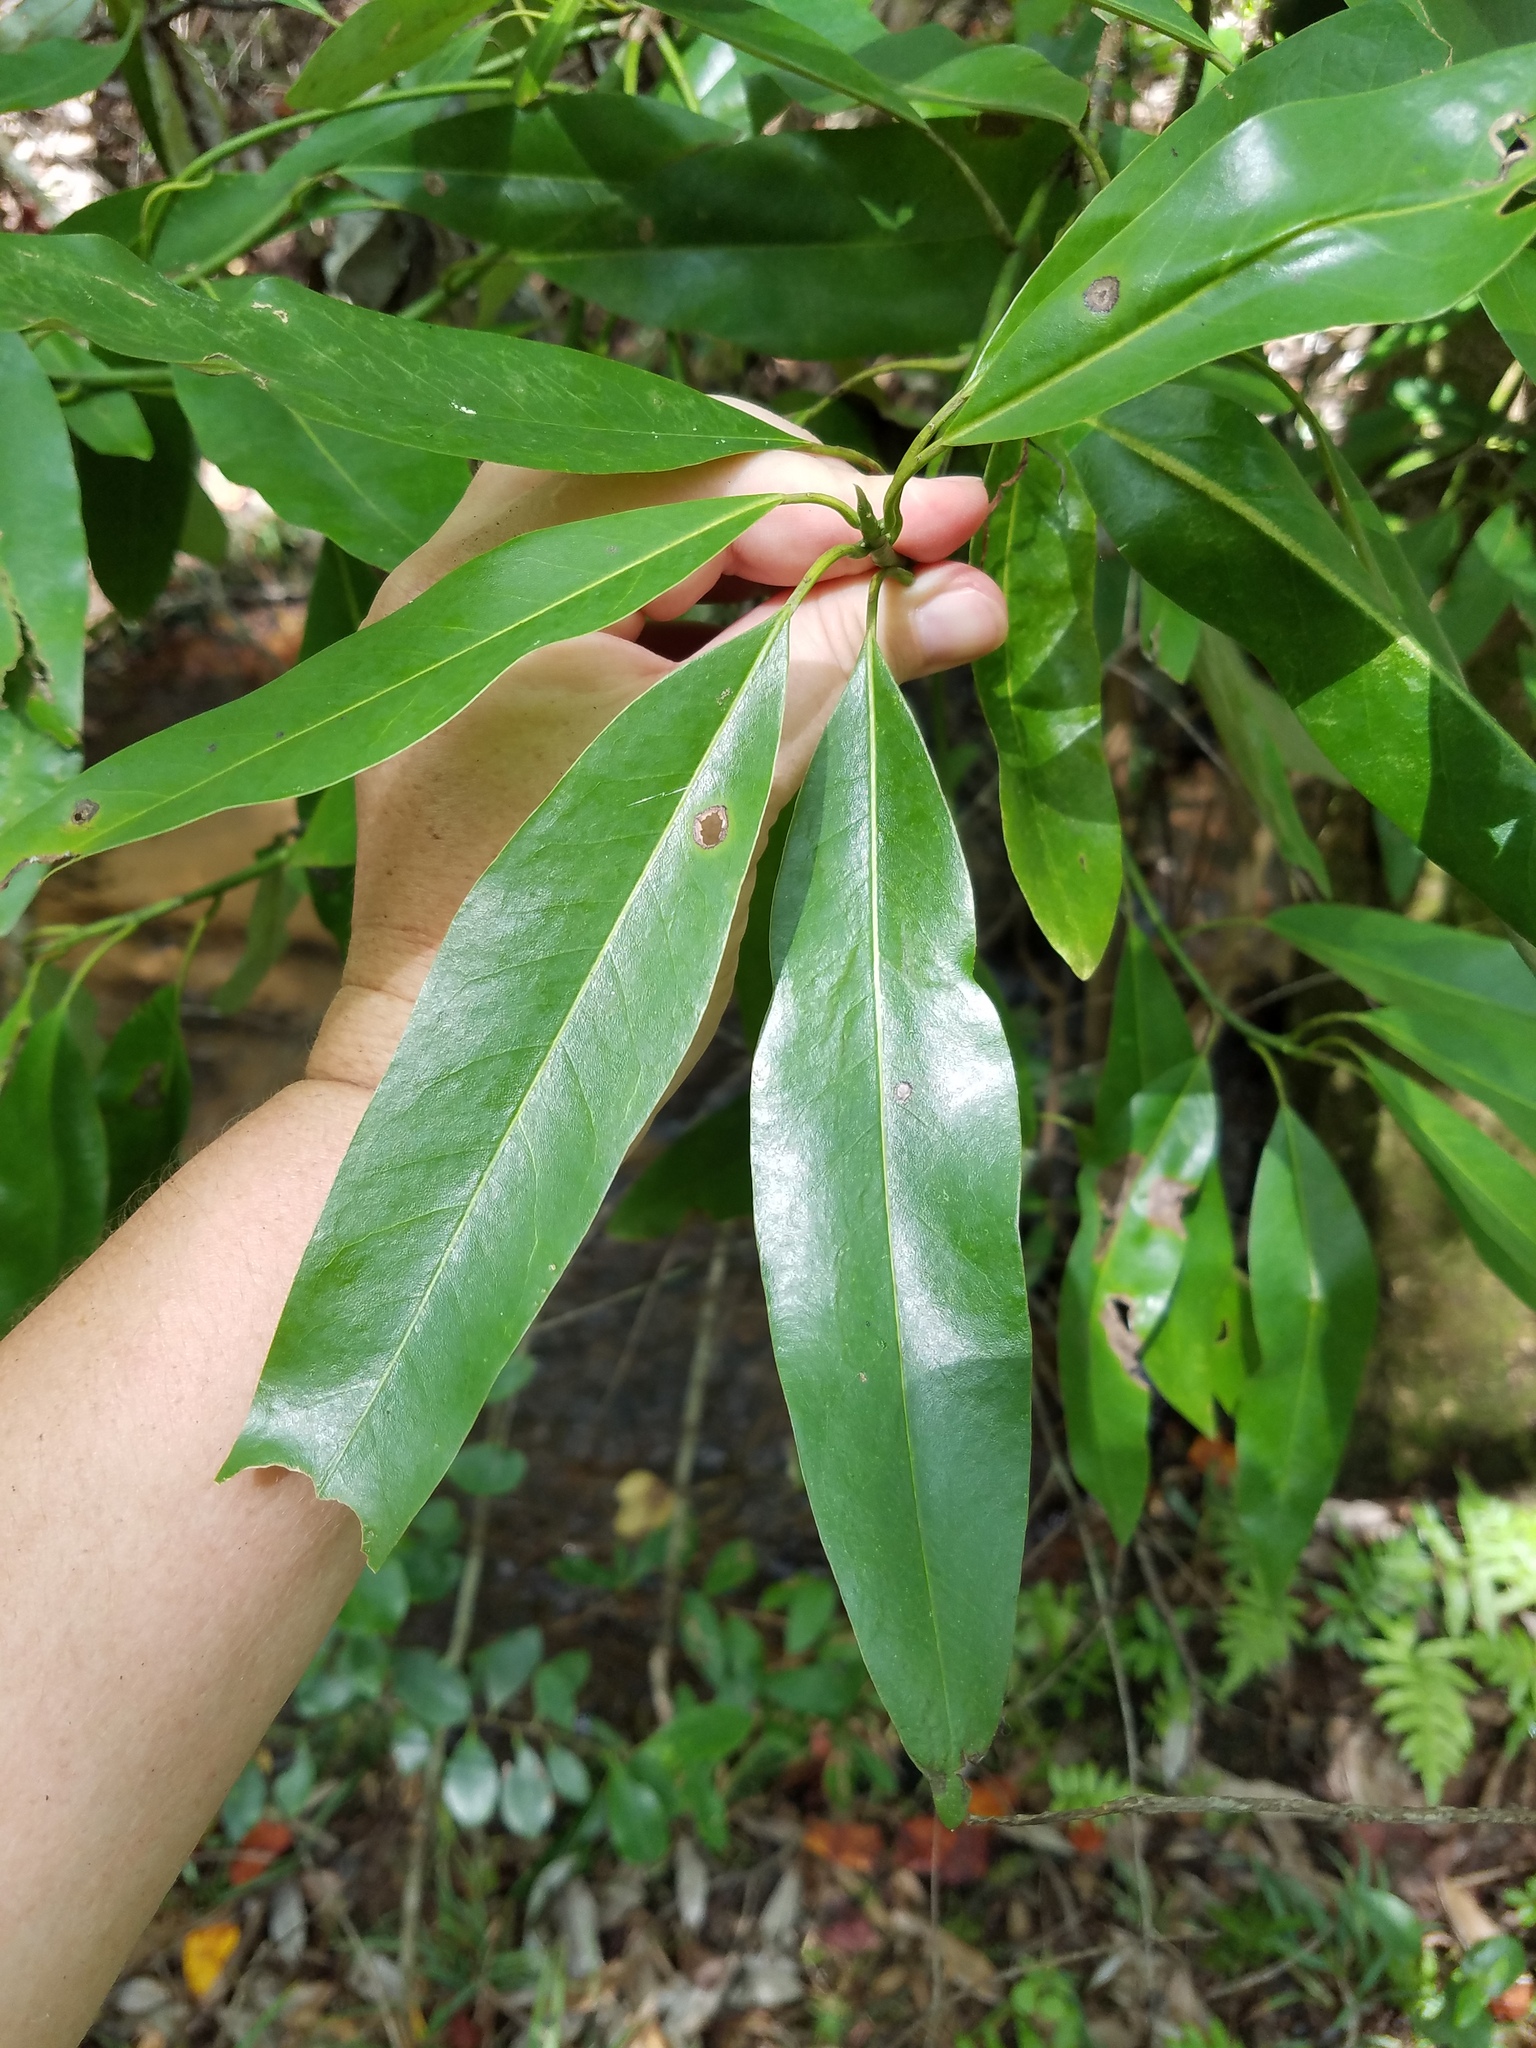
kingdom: Plantae
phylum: Tracheophyta
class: Magnoliopsida
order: Magnoliales
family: Magnoliaceae
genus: Magnolia
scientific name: Magnolia virginiana
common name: Swamp bay
